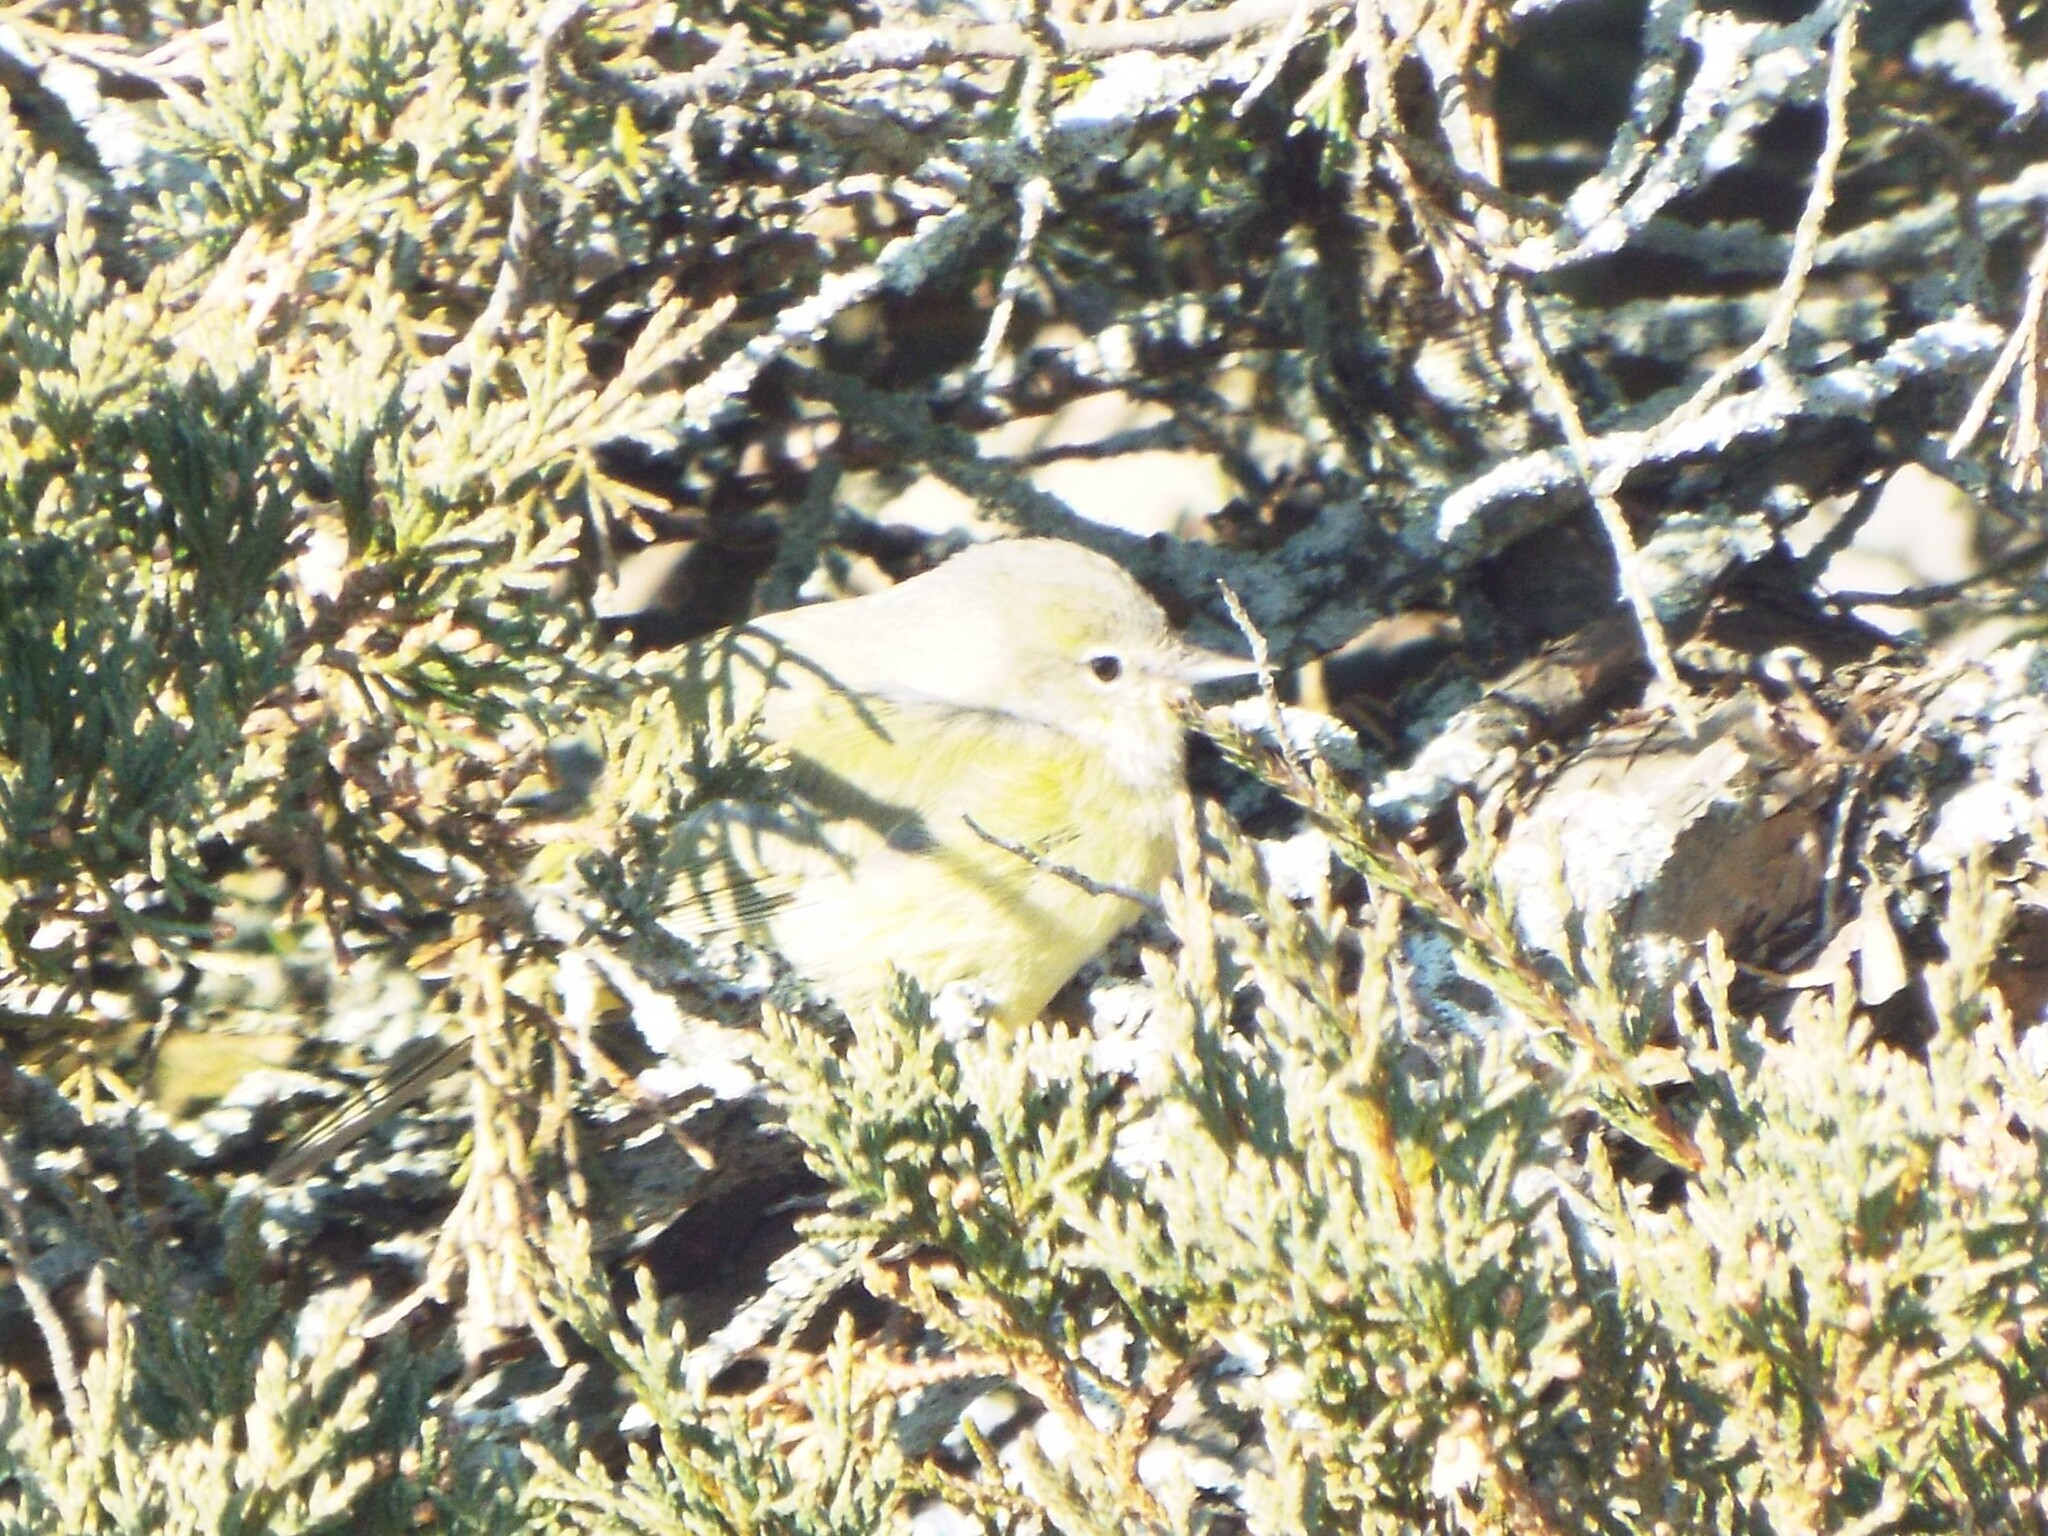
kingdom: Animalia
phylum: Chordata
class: Aves
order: Passeriformes
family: Parulidae
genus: Leiothlypis
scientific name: Leiothlypis celata
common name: Orange-crowned warbler
